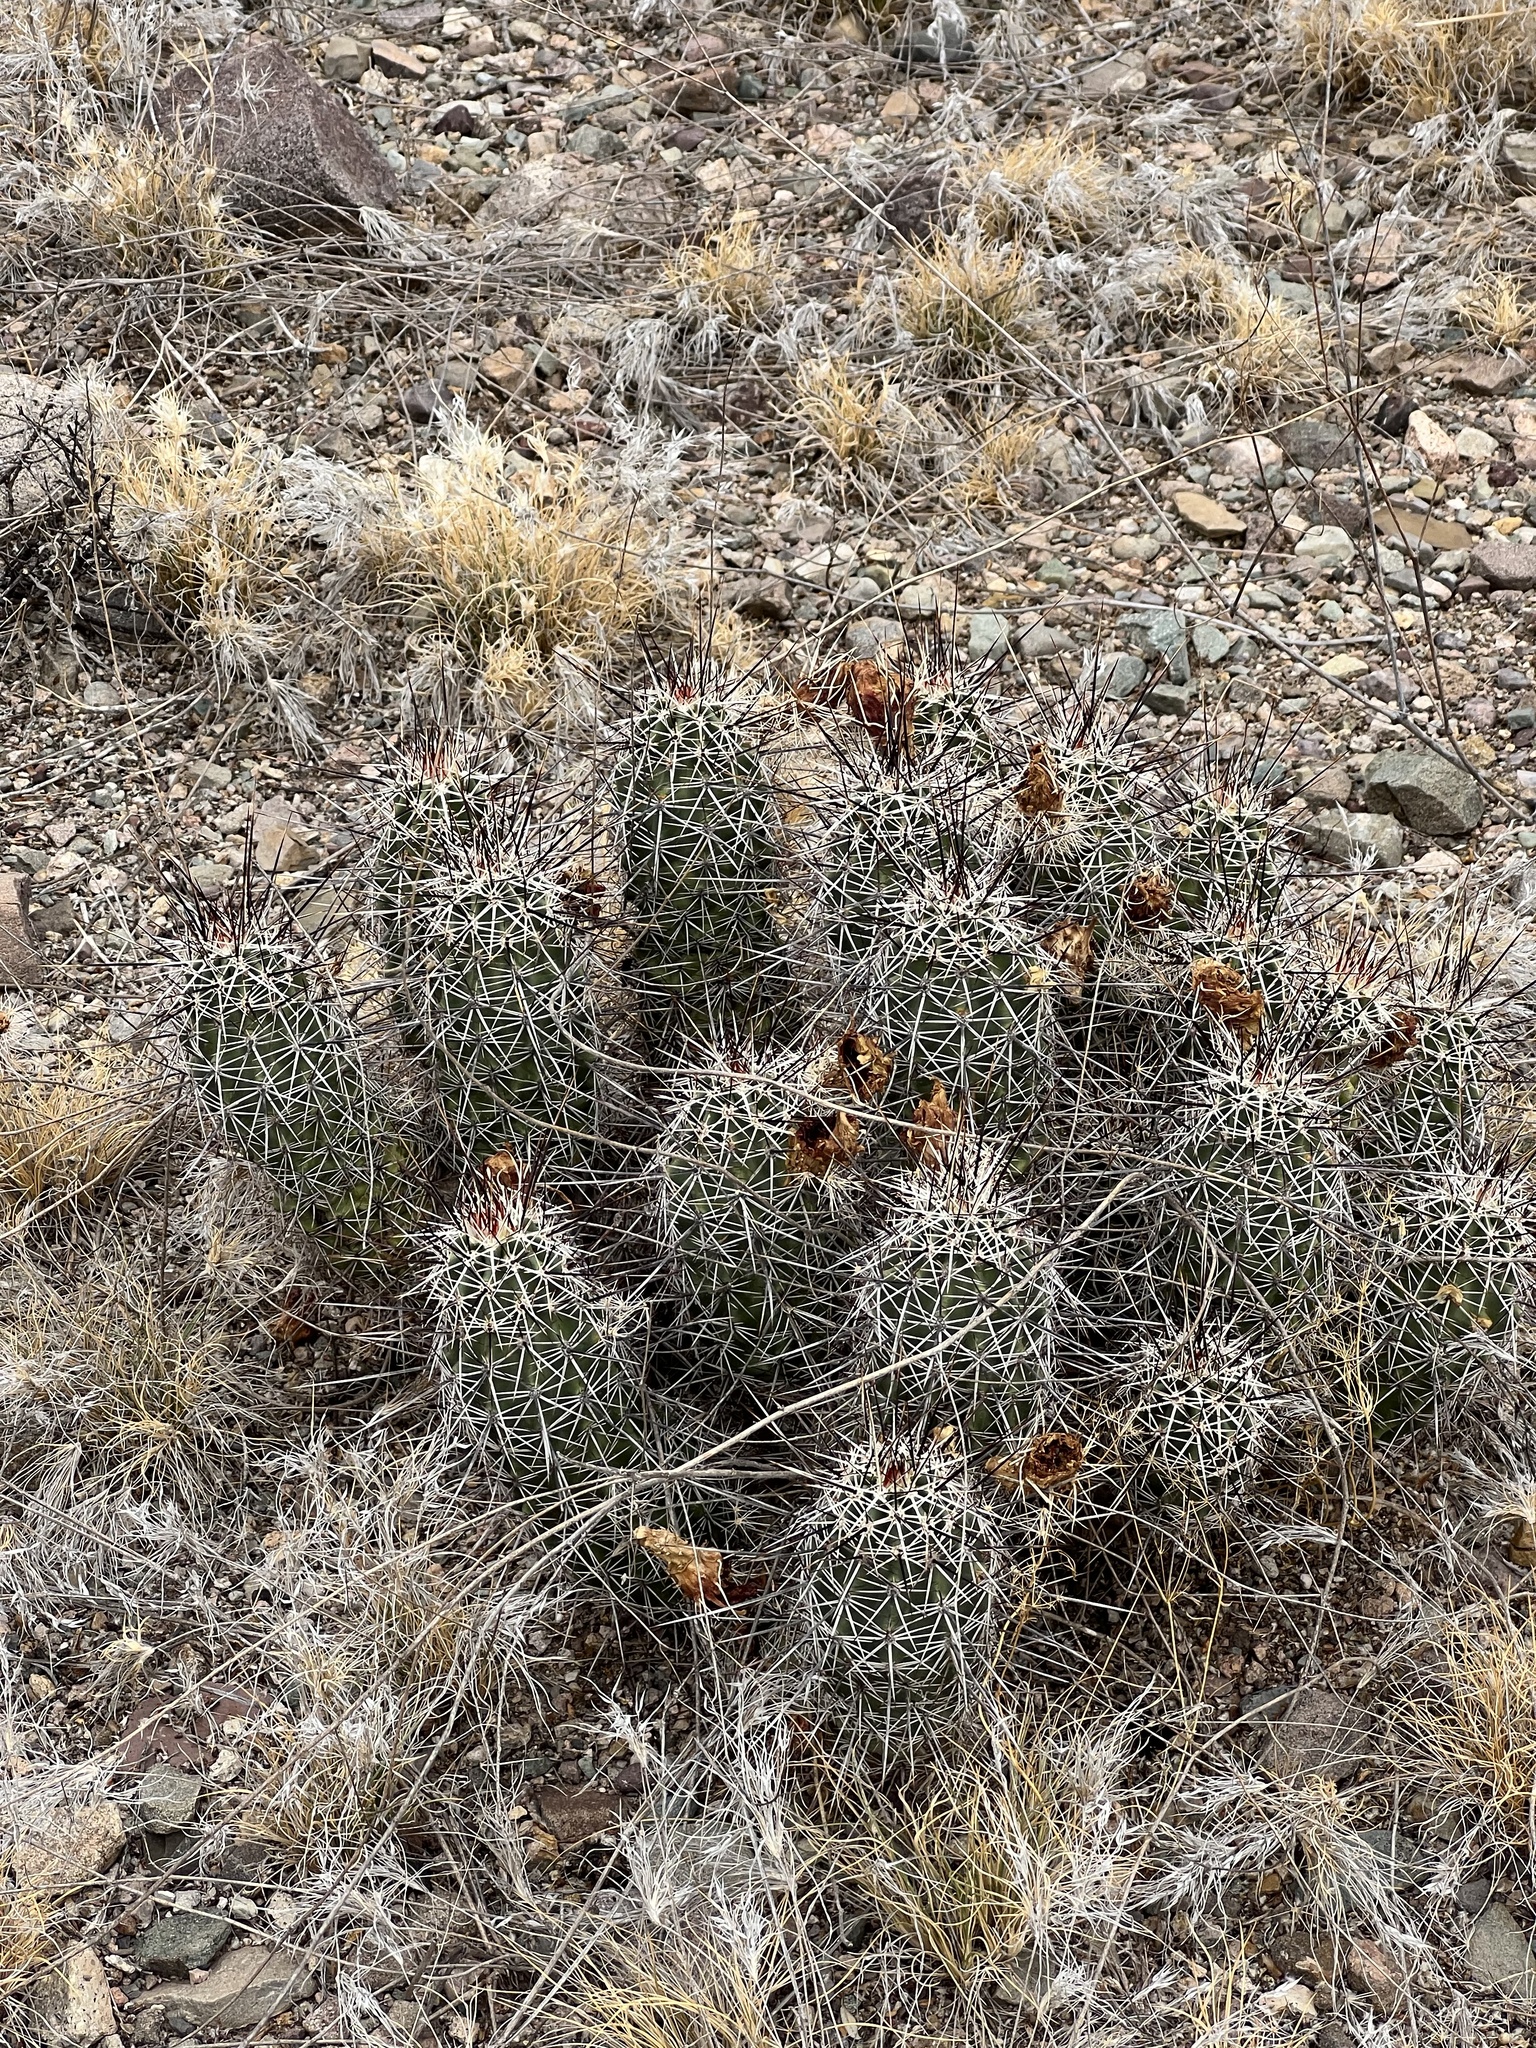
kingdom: Plantae
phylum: Tracheophyta
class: Magnoliopsida
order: Caryophyllales
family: Cactaceae
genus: Echinocereus
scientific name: Echinocereus fasciculatus
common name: Bundle hedgehog
